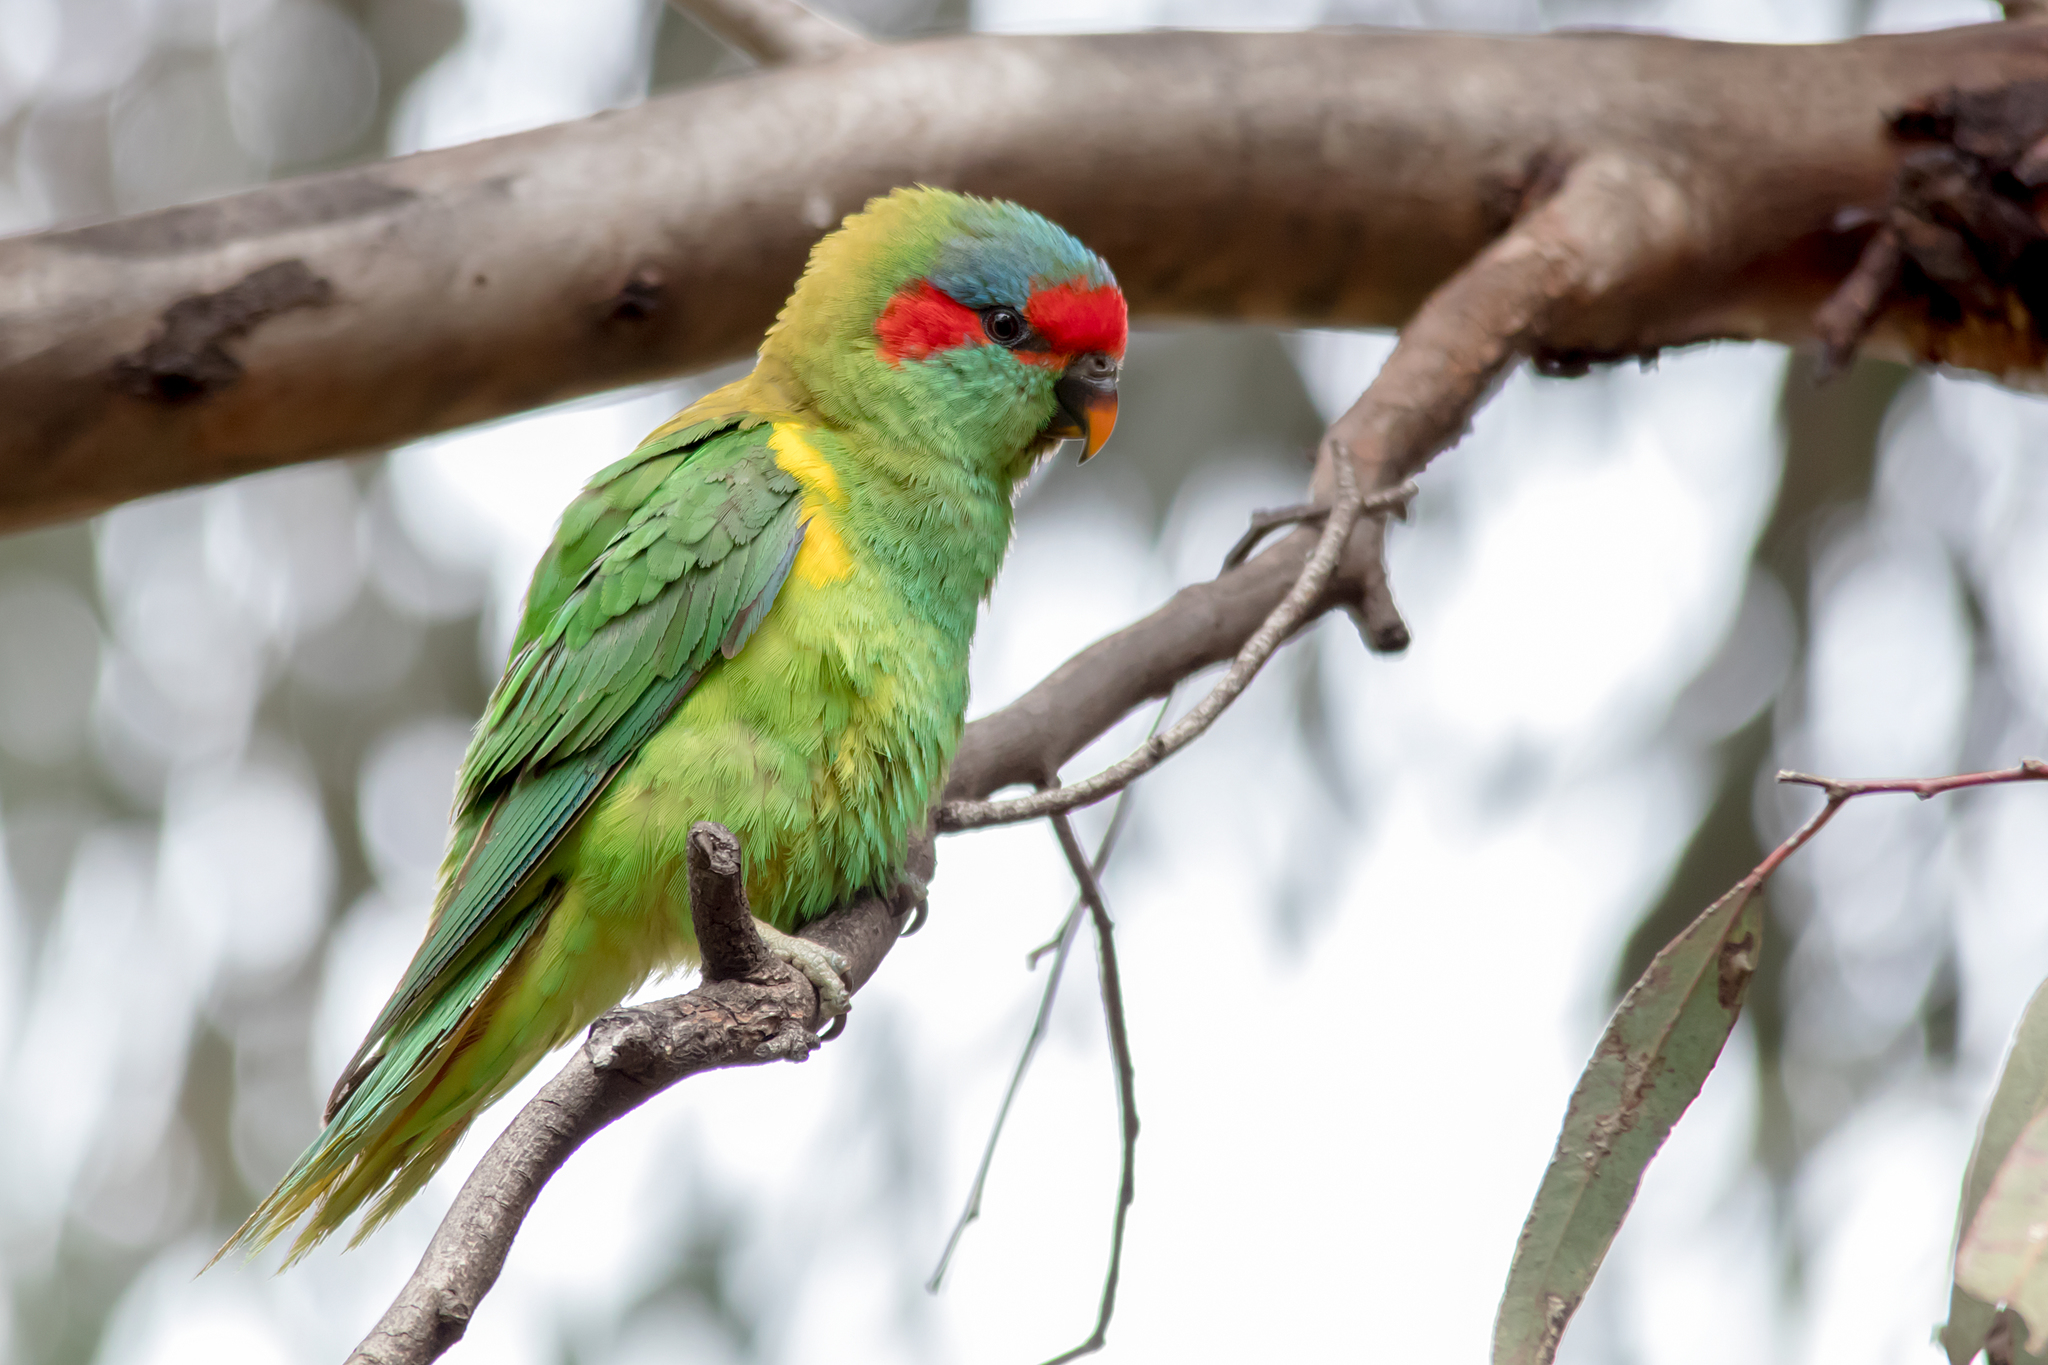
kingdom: Animalia
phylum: Chordata
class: Aves
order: Psittaciformes
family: Psittacidae
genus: Glossopsitta
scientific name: Glossopsitta concinna
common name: Musk lorikeet
